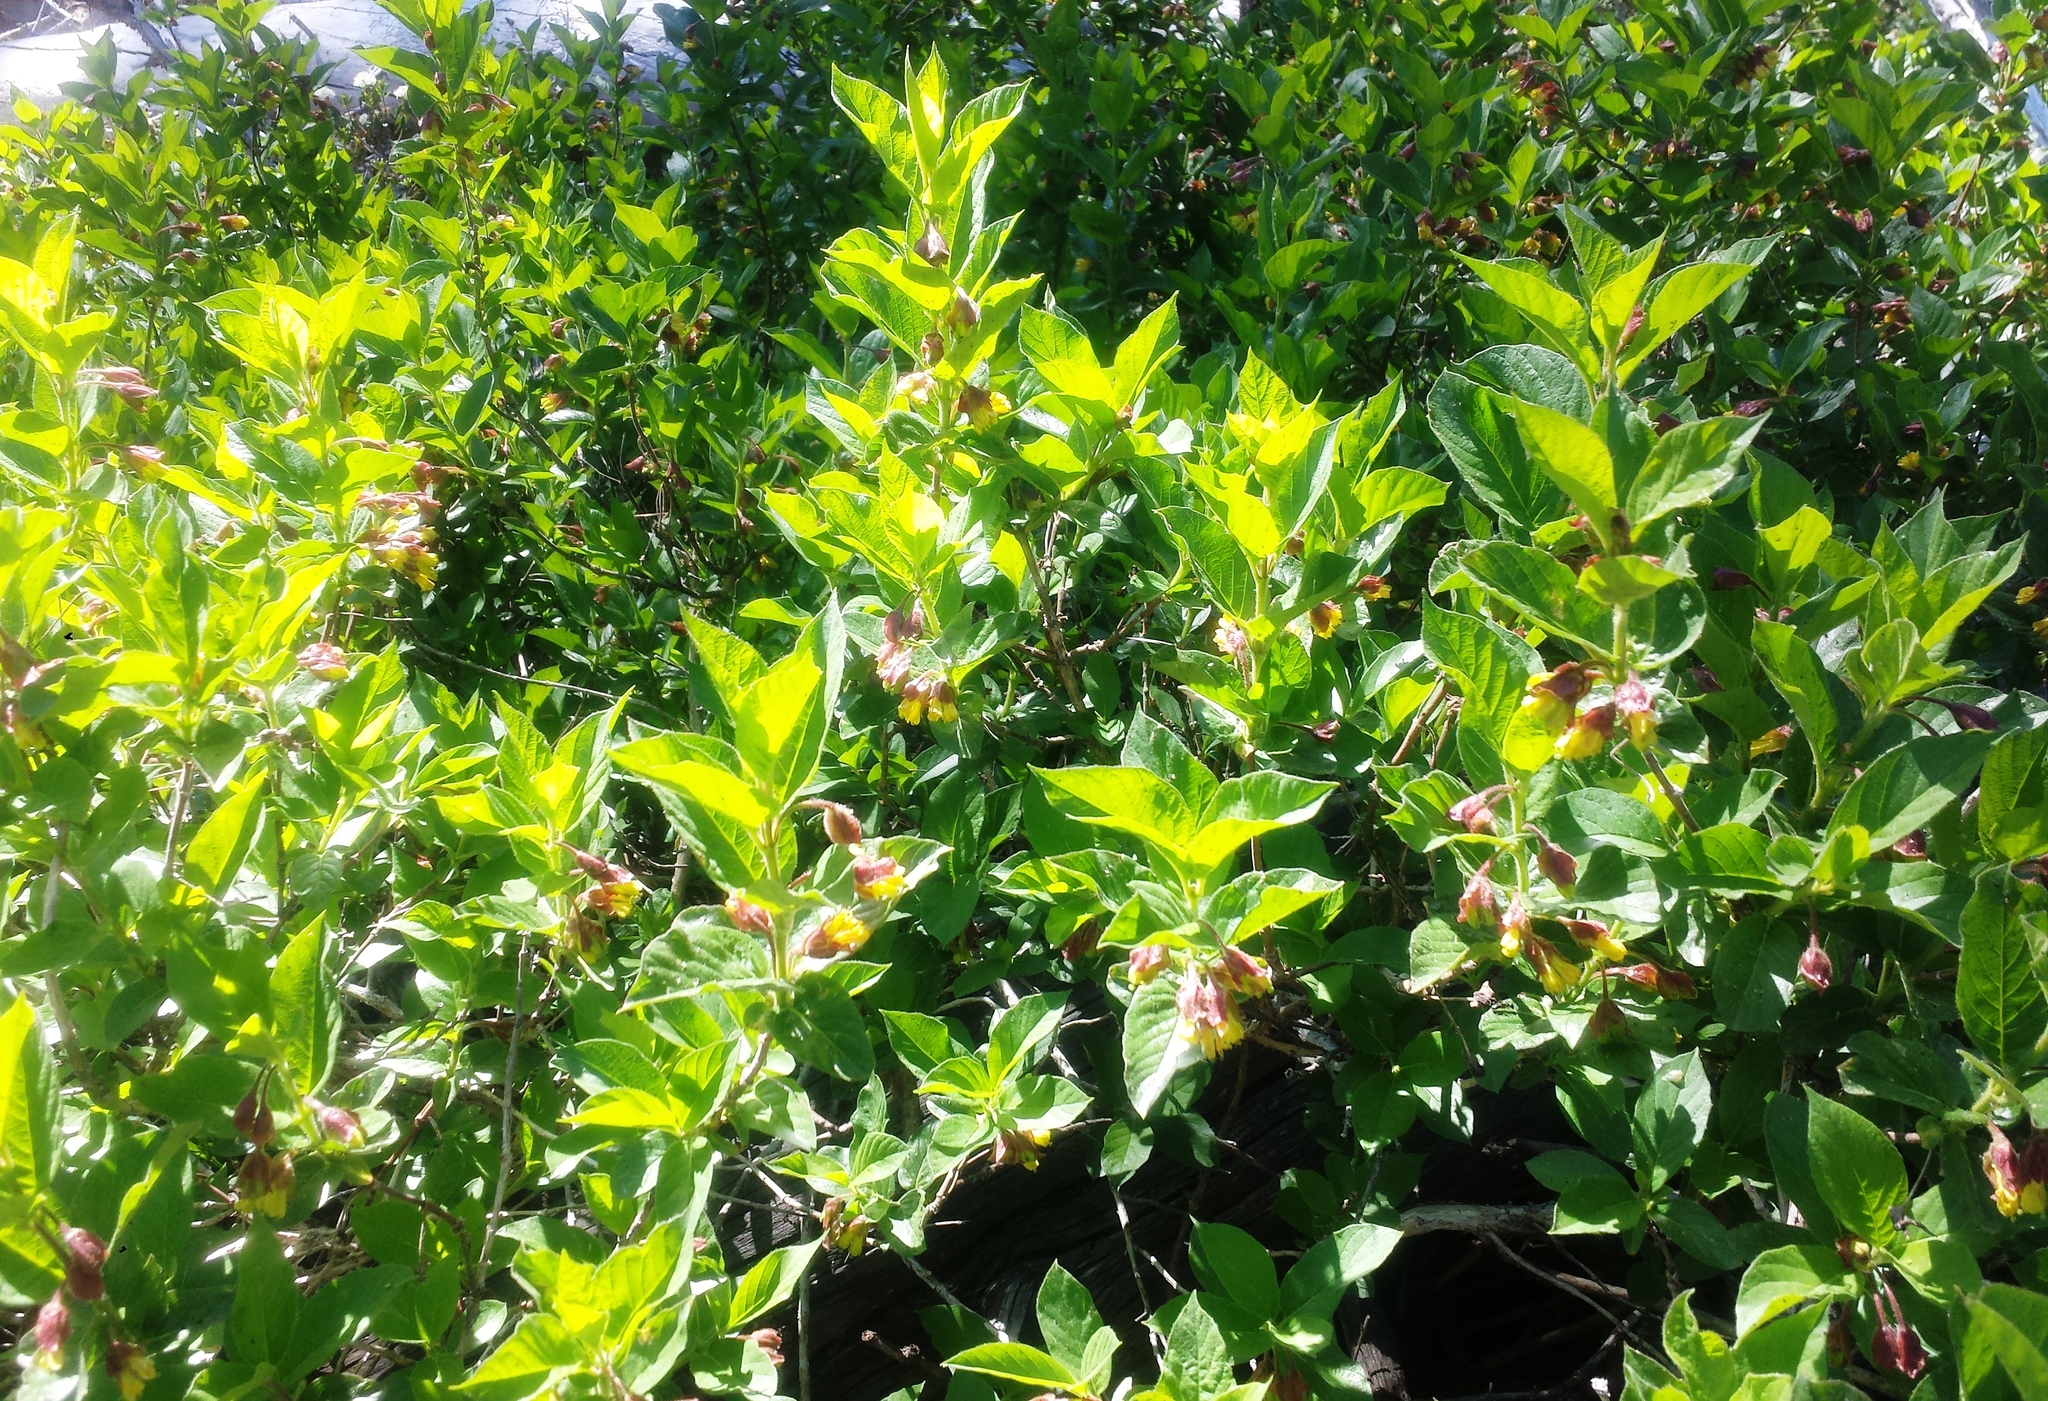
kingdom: Plantae
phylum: Tracheophyta
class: Magnoliopsida
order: Dipsacales
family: Caprifoliaceae
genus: Lonicera
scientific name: Lonicera involucrata
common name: Californian honeysuckle
